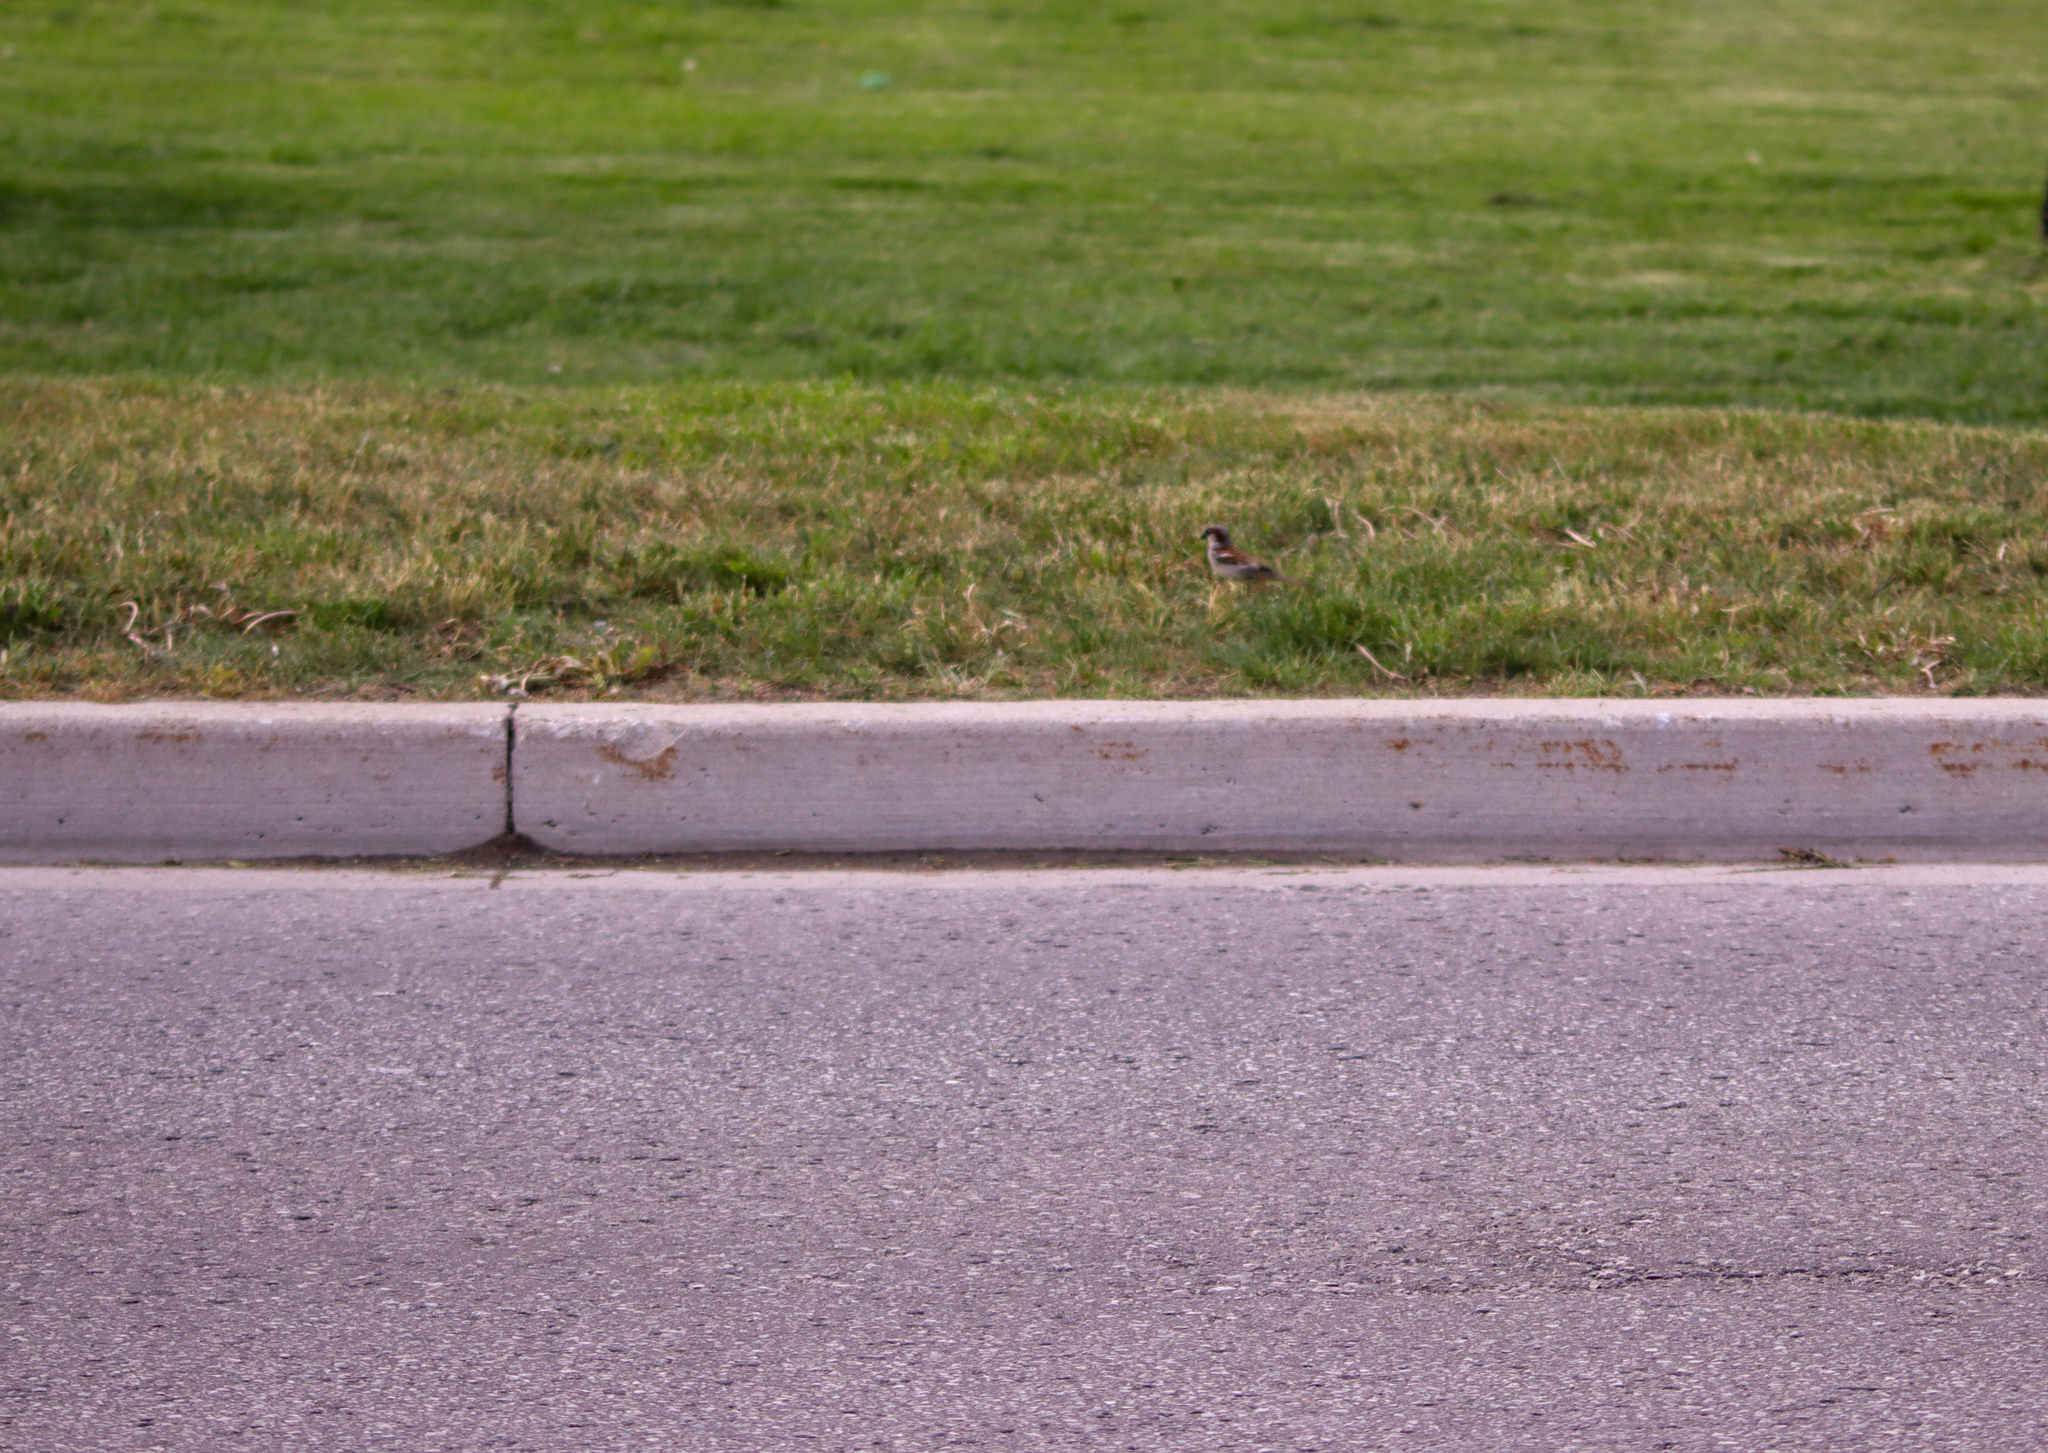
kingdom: Animalia
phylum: Chordata
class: Aves
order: Passeriformes
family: Passeridae
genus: Passer
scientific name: Passer domesticus
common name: House sparrow
